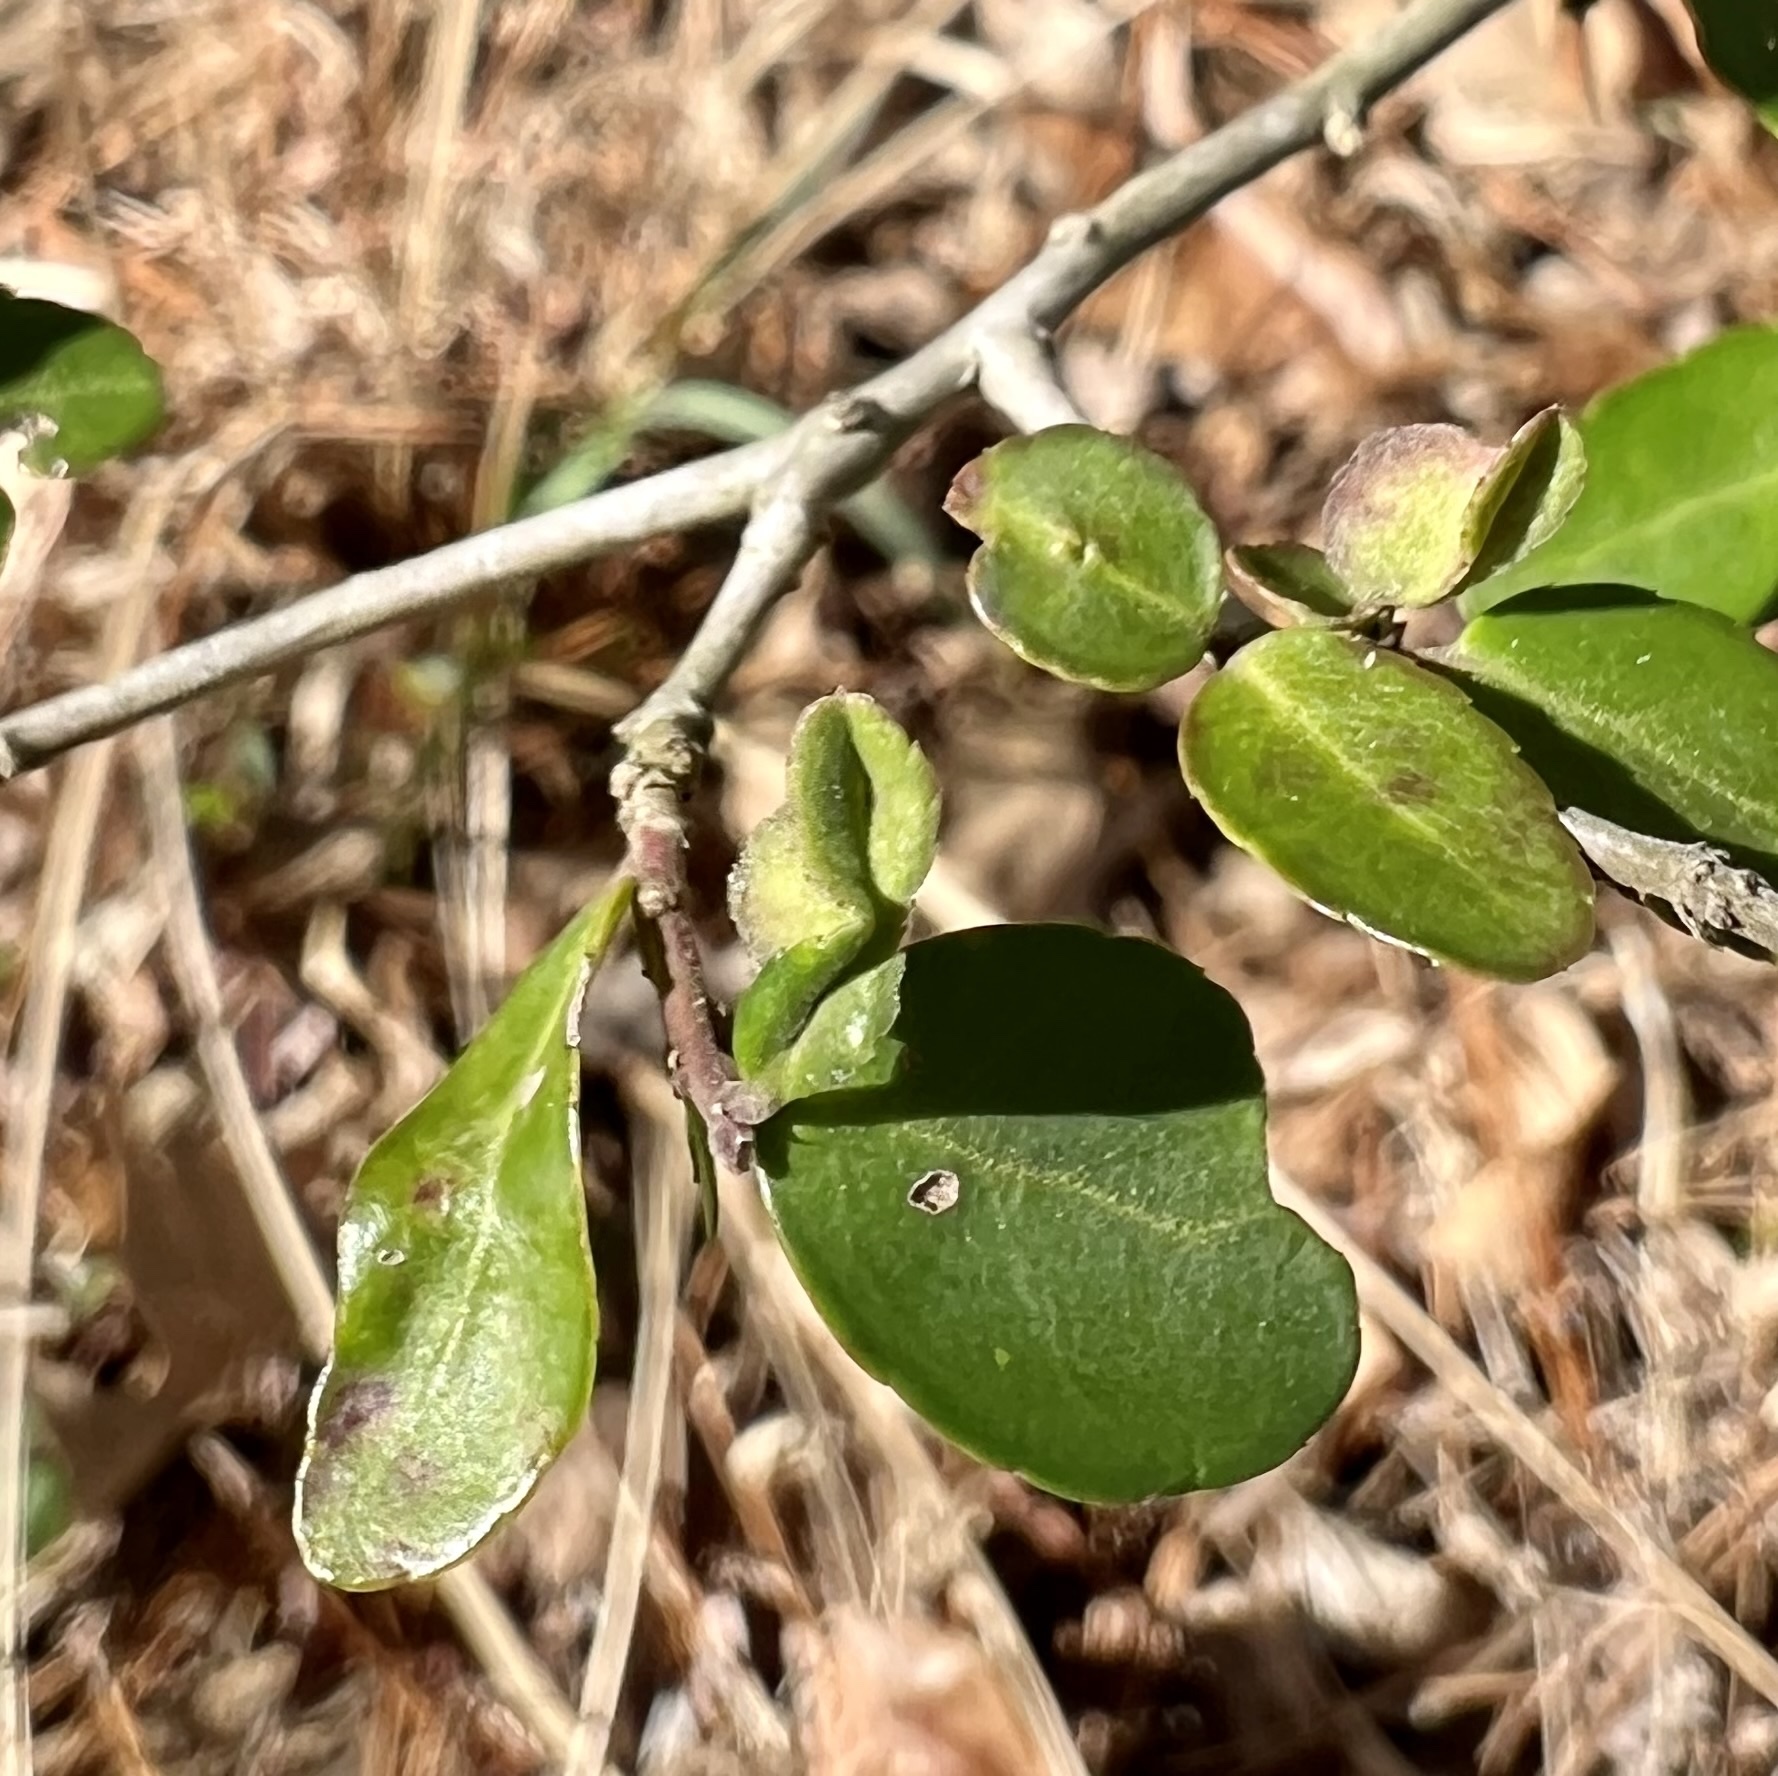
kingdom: Animalia
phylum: Arthropoda
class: Insecta
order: Hemiptera
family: Aphalaridae
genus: Gyropsylla
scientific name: Gyropsylla ilecis
